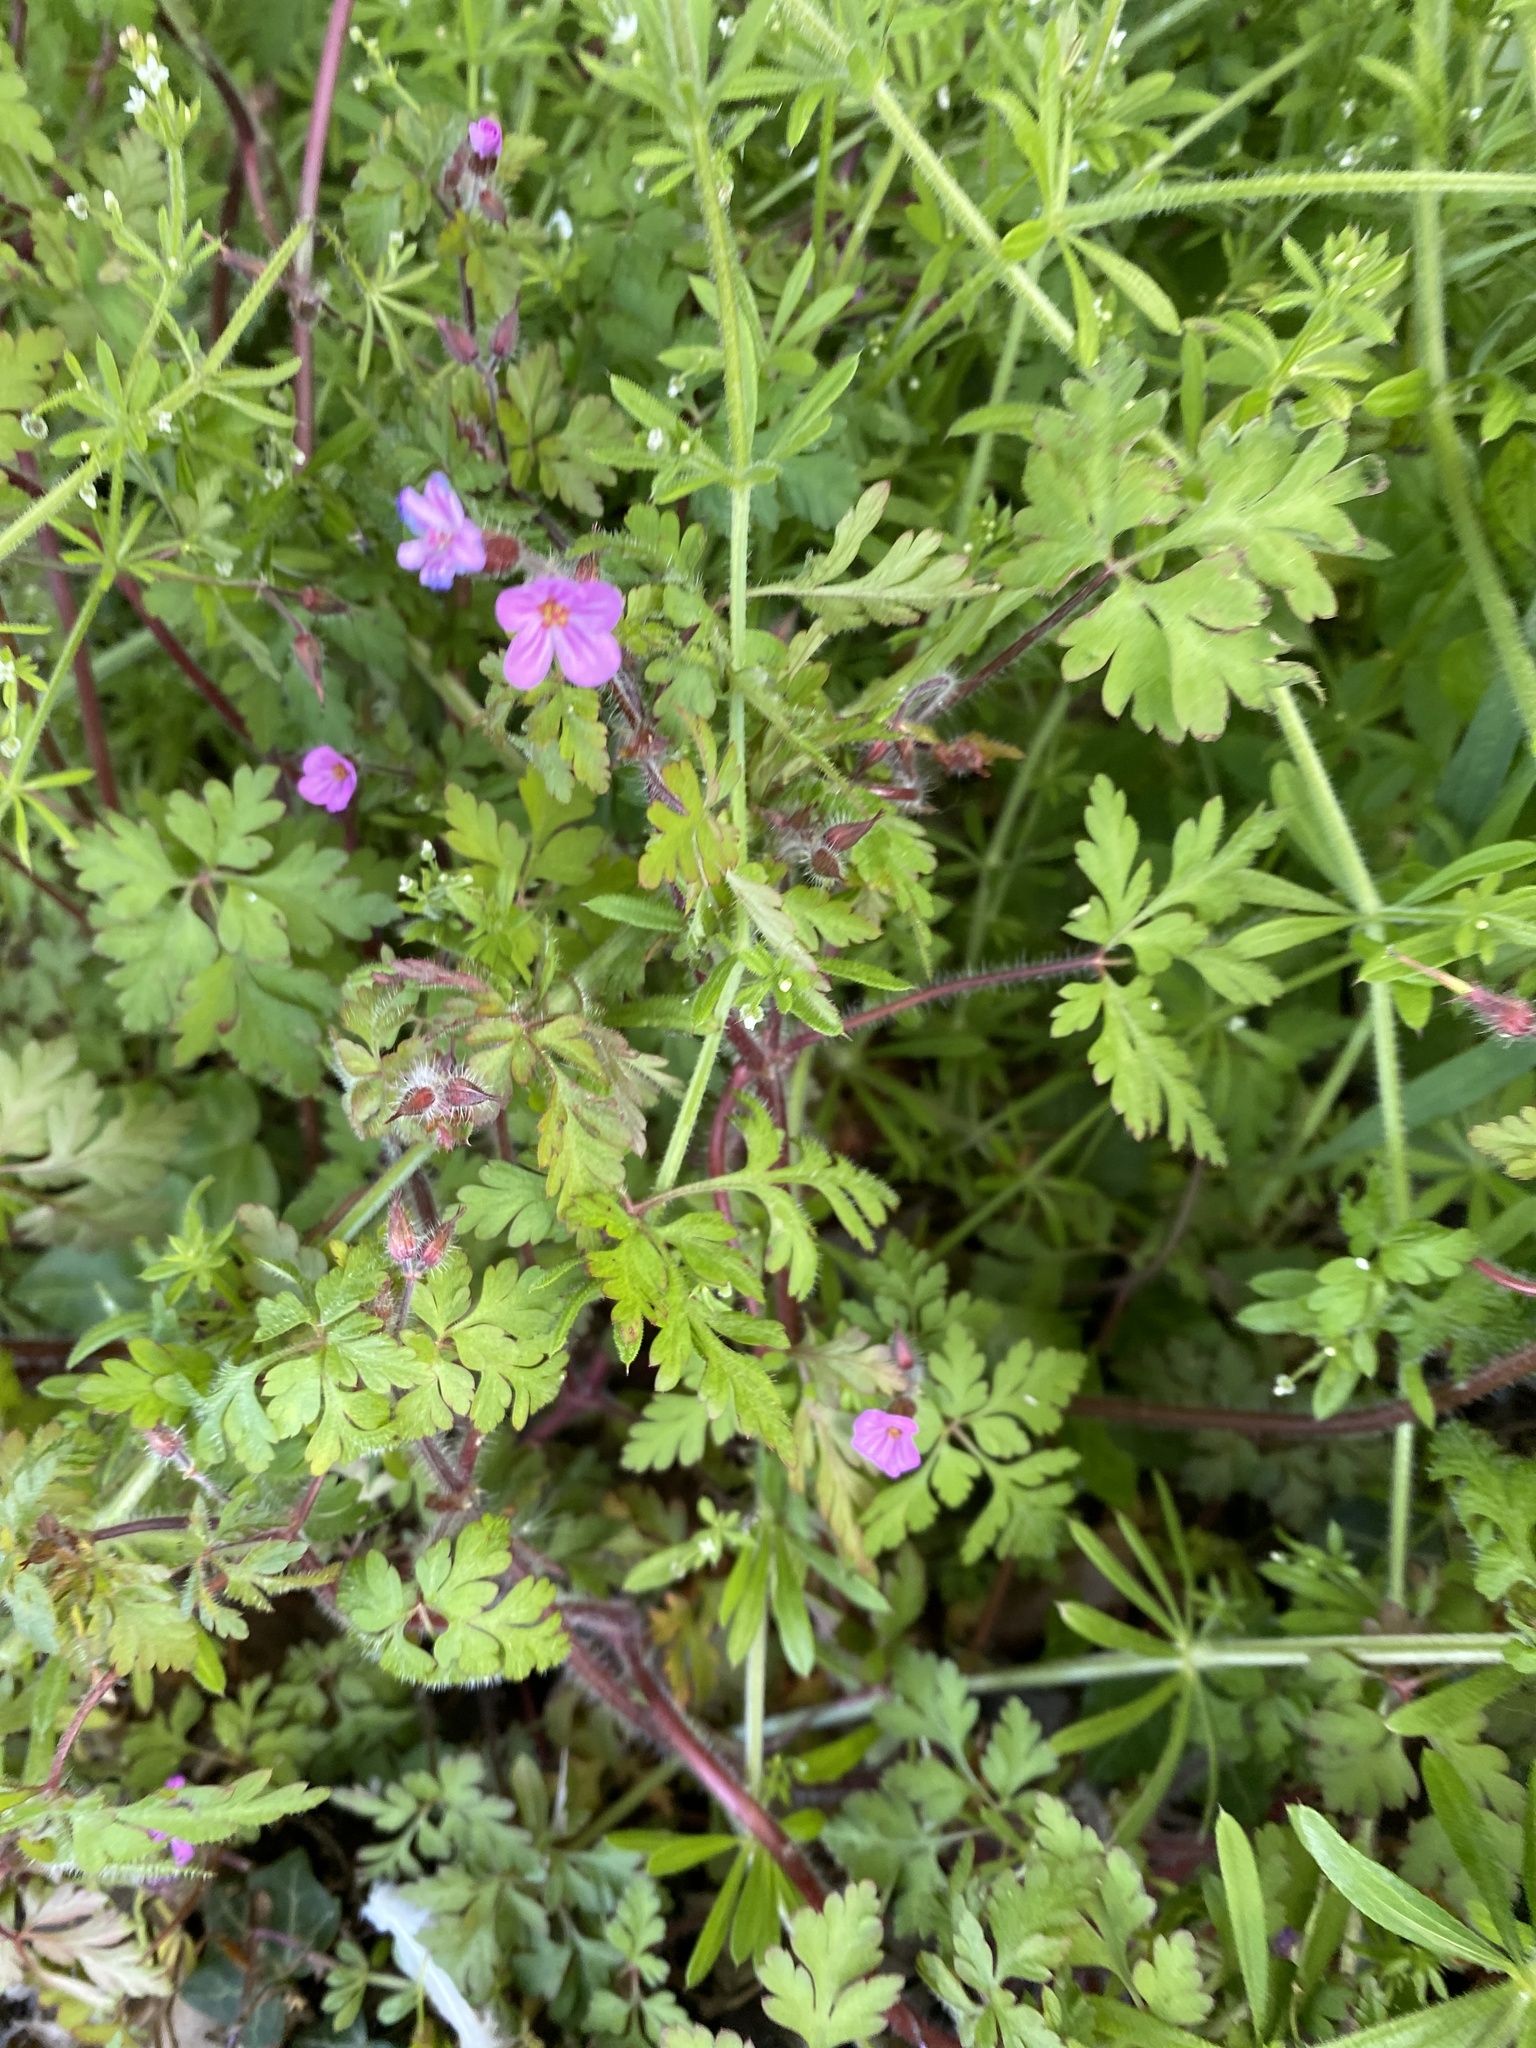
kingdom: Plantae
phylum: Tracheophyta
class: Magnoliopsida
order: Geraniales
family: Geraniaceae
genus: Geranium
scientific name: Geranium robertianum
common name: Herb-robert
